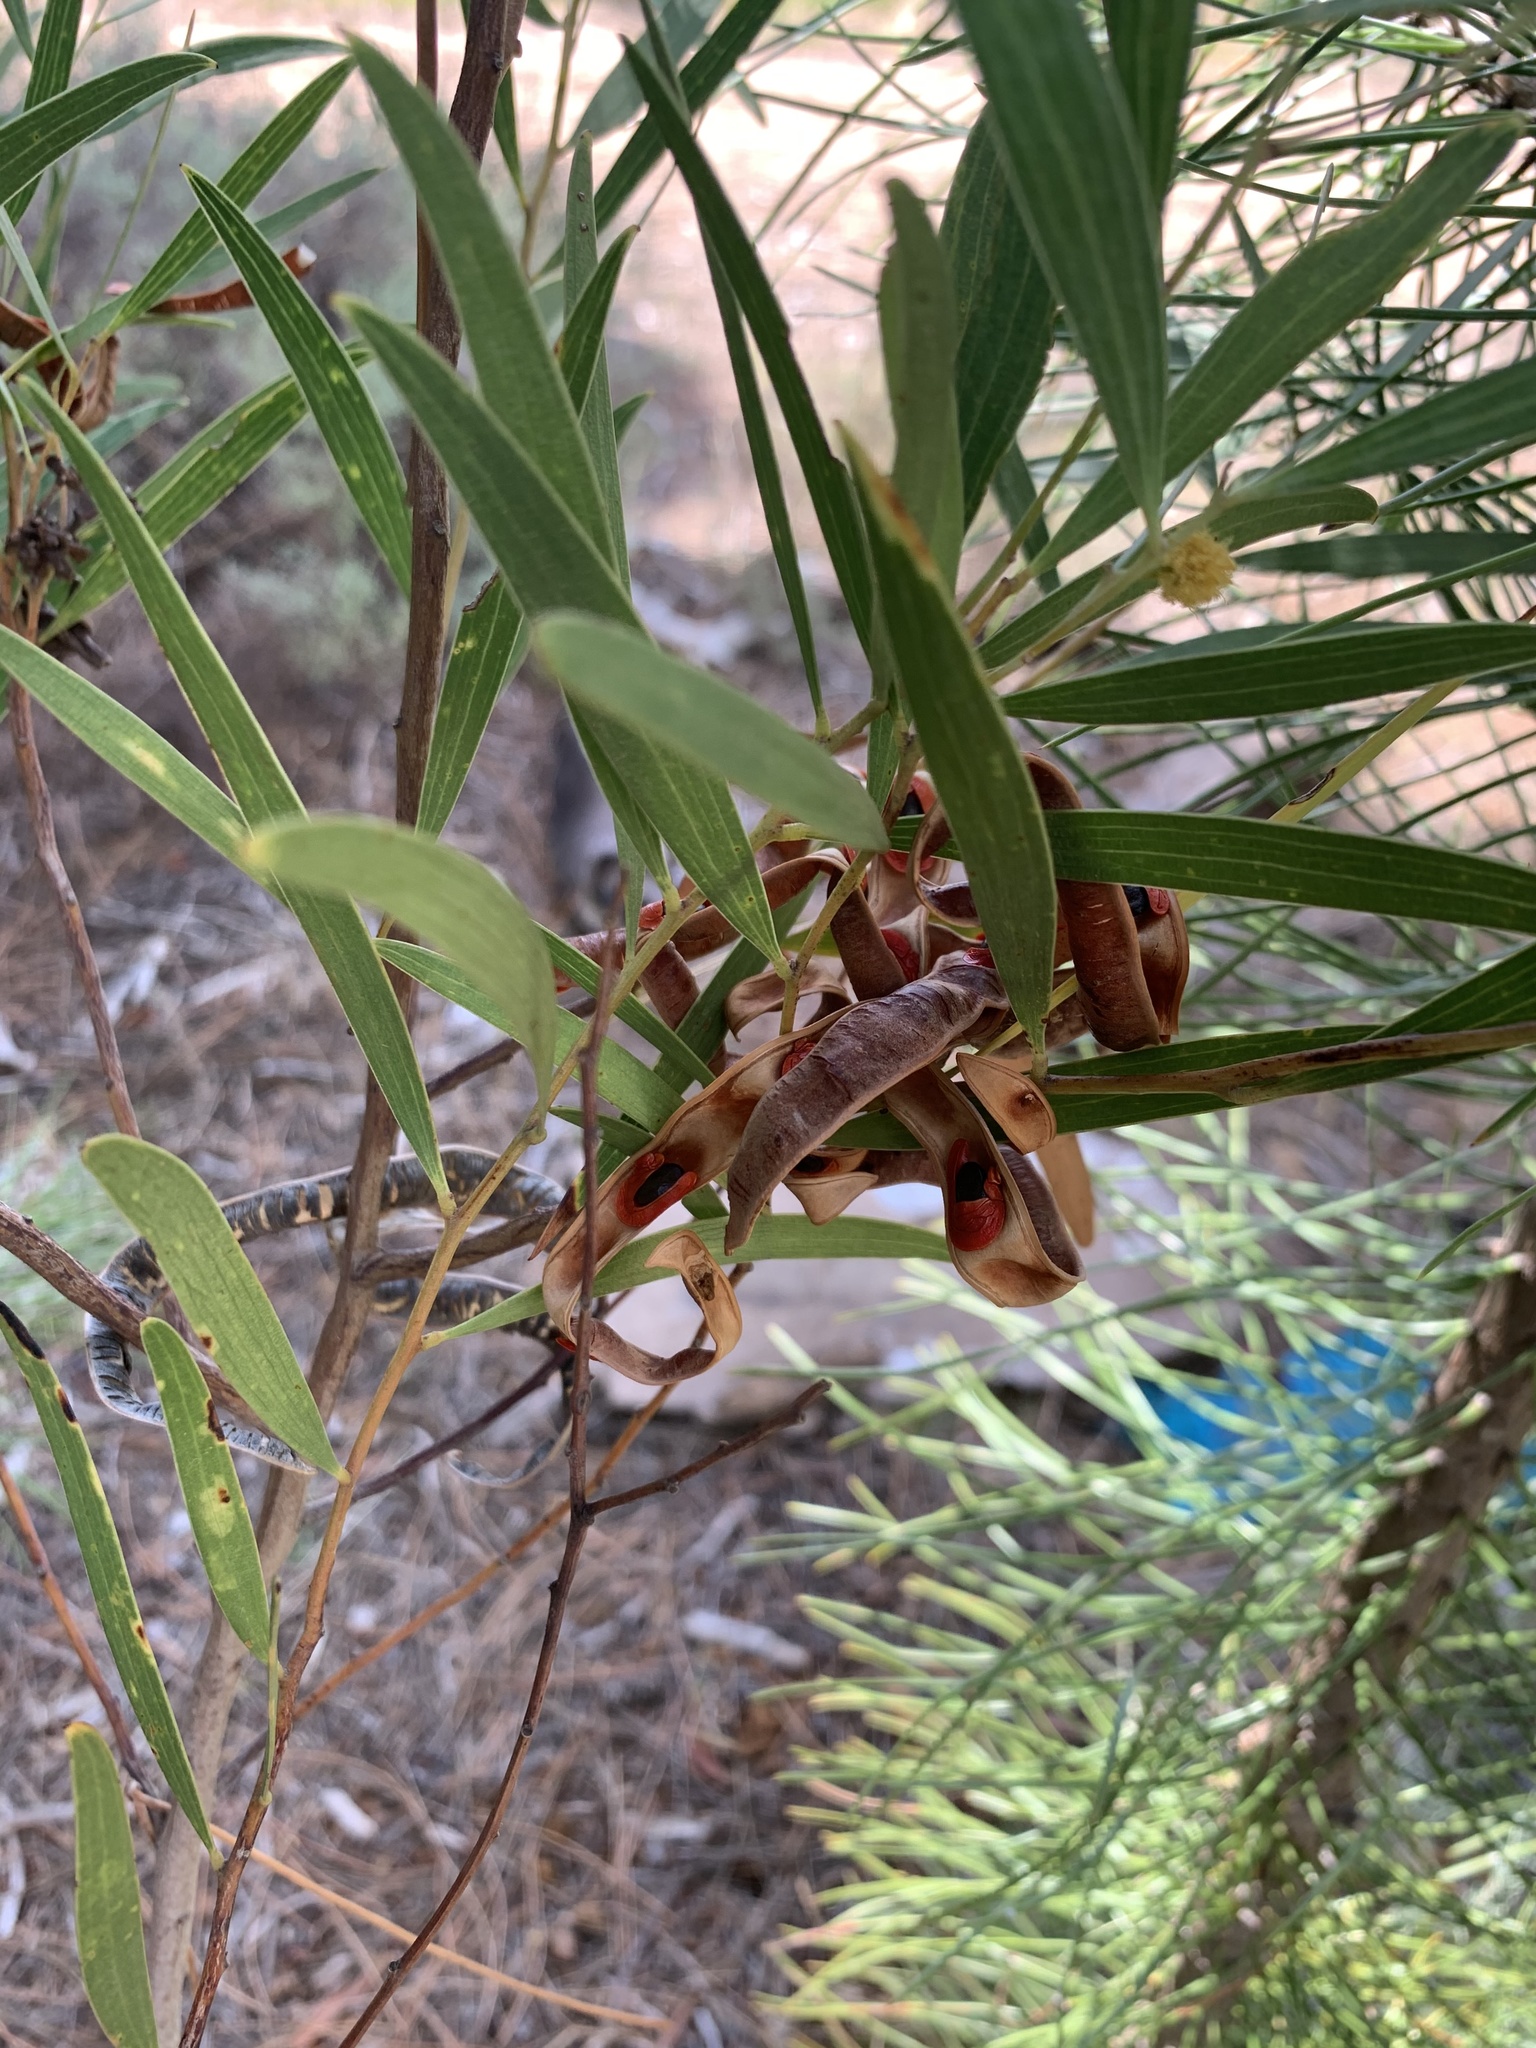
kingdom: Animalia
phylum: Arthropoda
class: Insecta
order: Diptera
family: Cecidomyiidae
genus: Dasineura
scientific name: Dasineura dielsi
